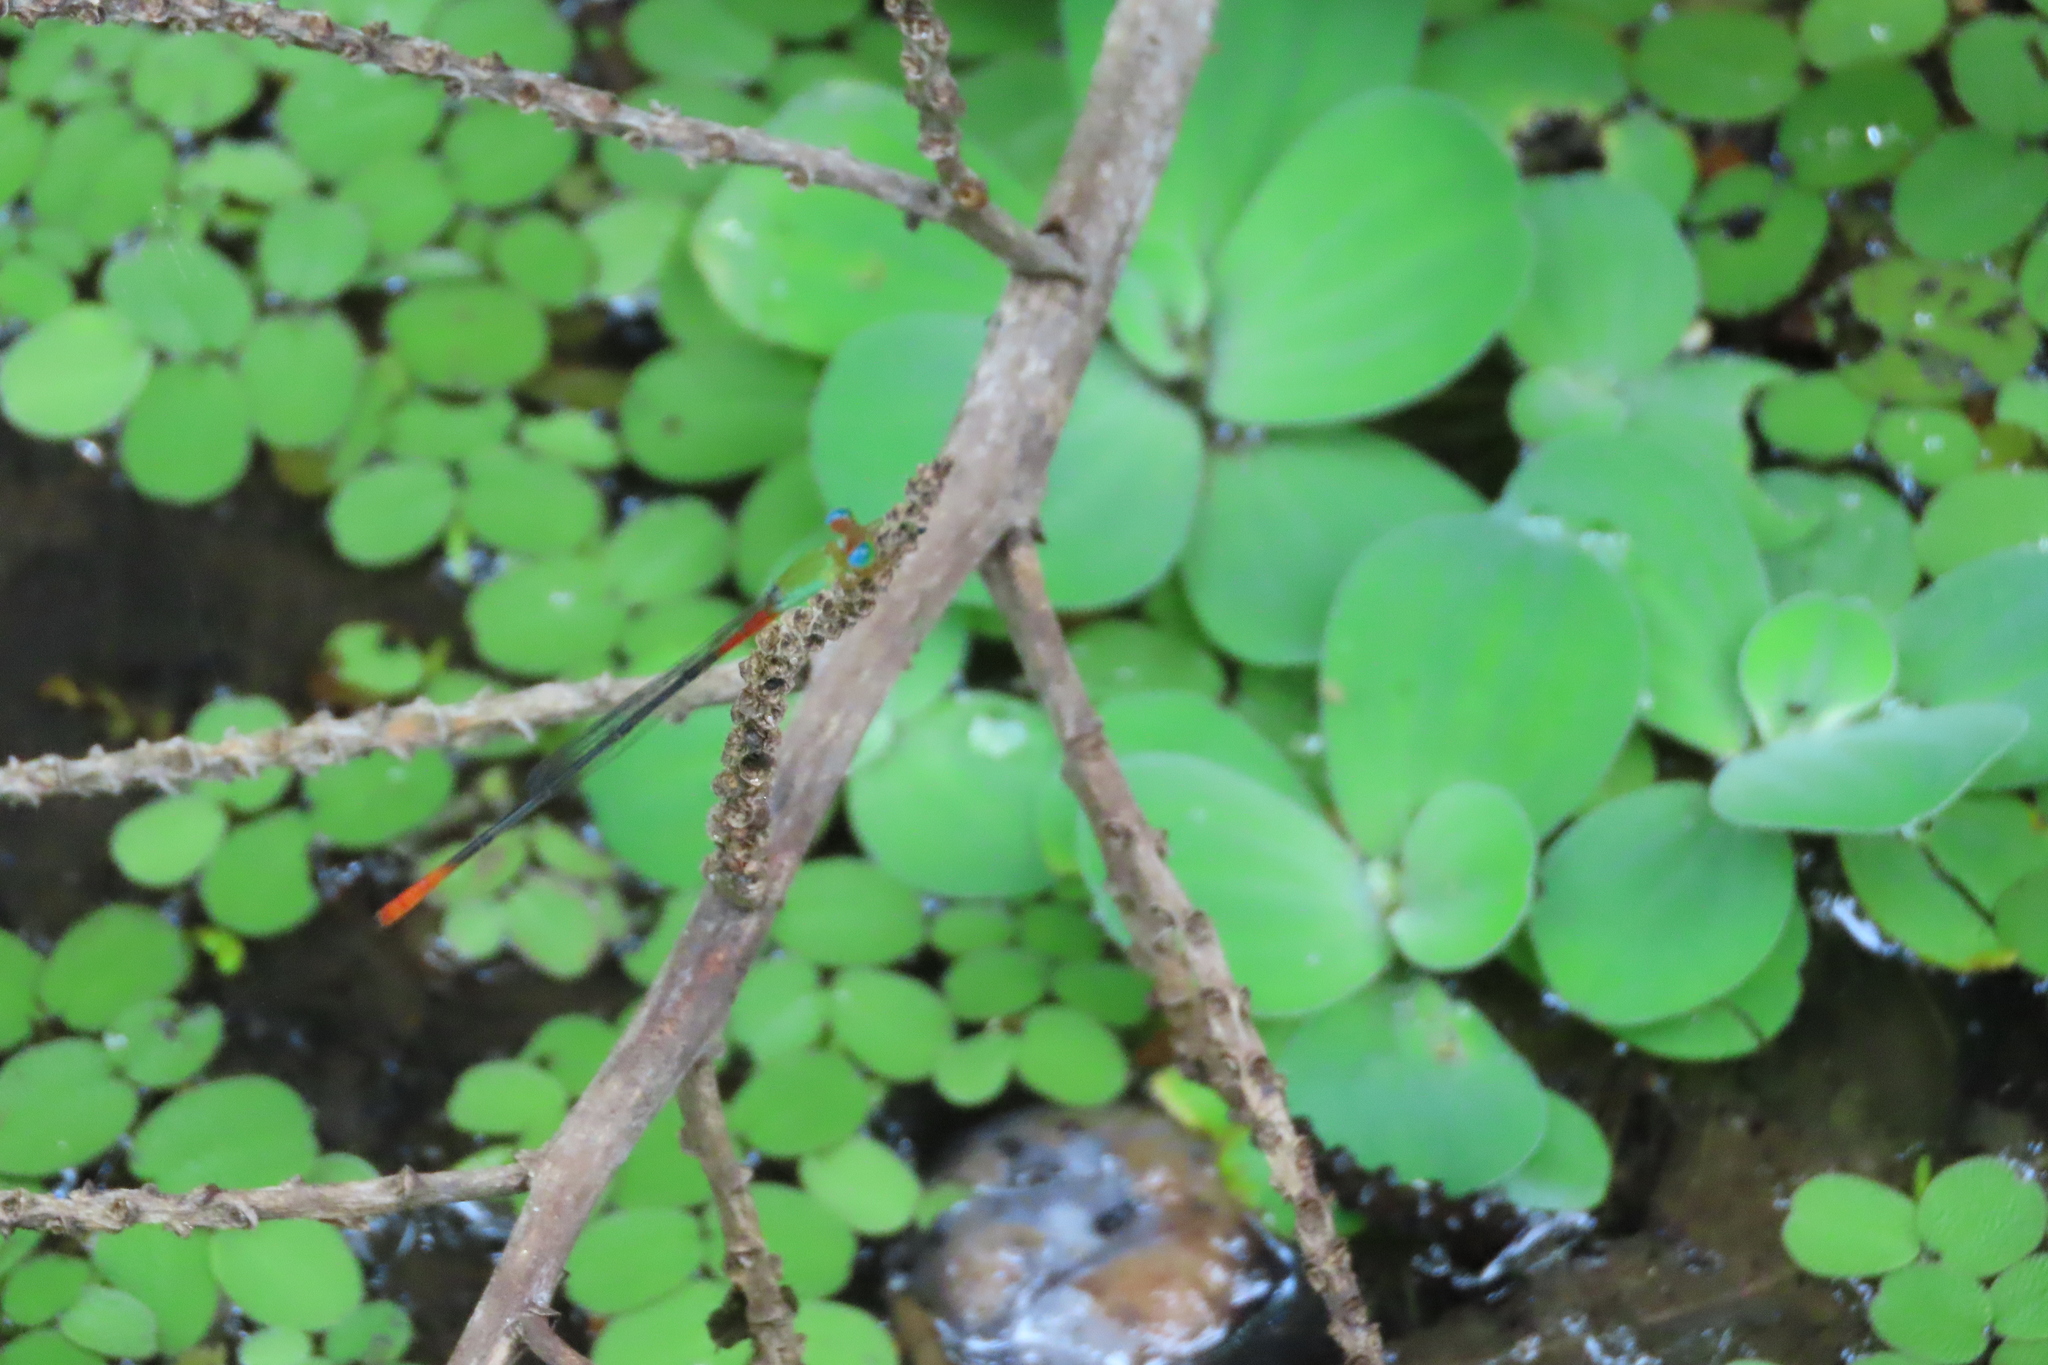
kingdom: Animalia
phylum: Arthropoda
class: Insecta
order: Odonata
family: Coenagrionidae
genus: Ceriagrion
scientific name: Ceriagrion cerinorubellum
